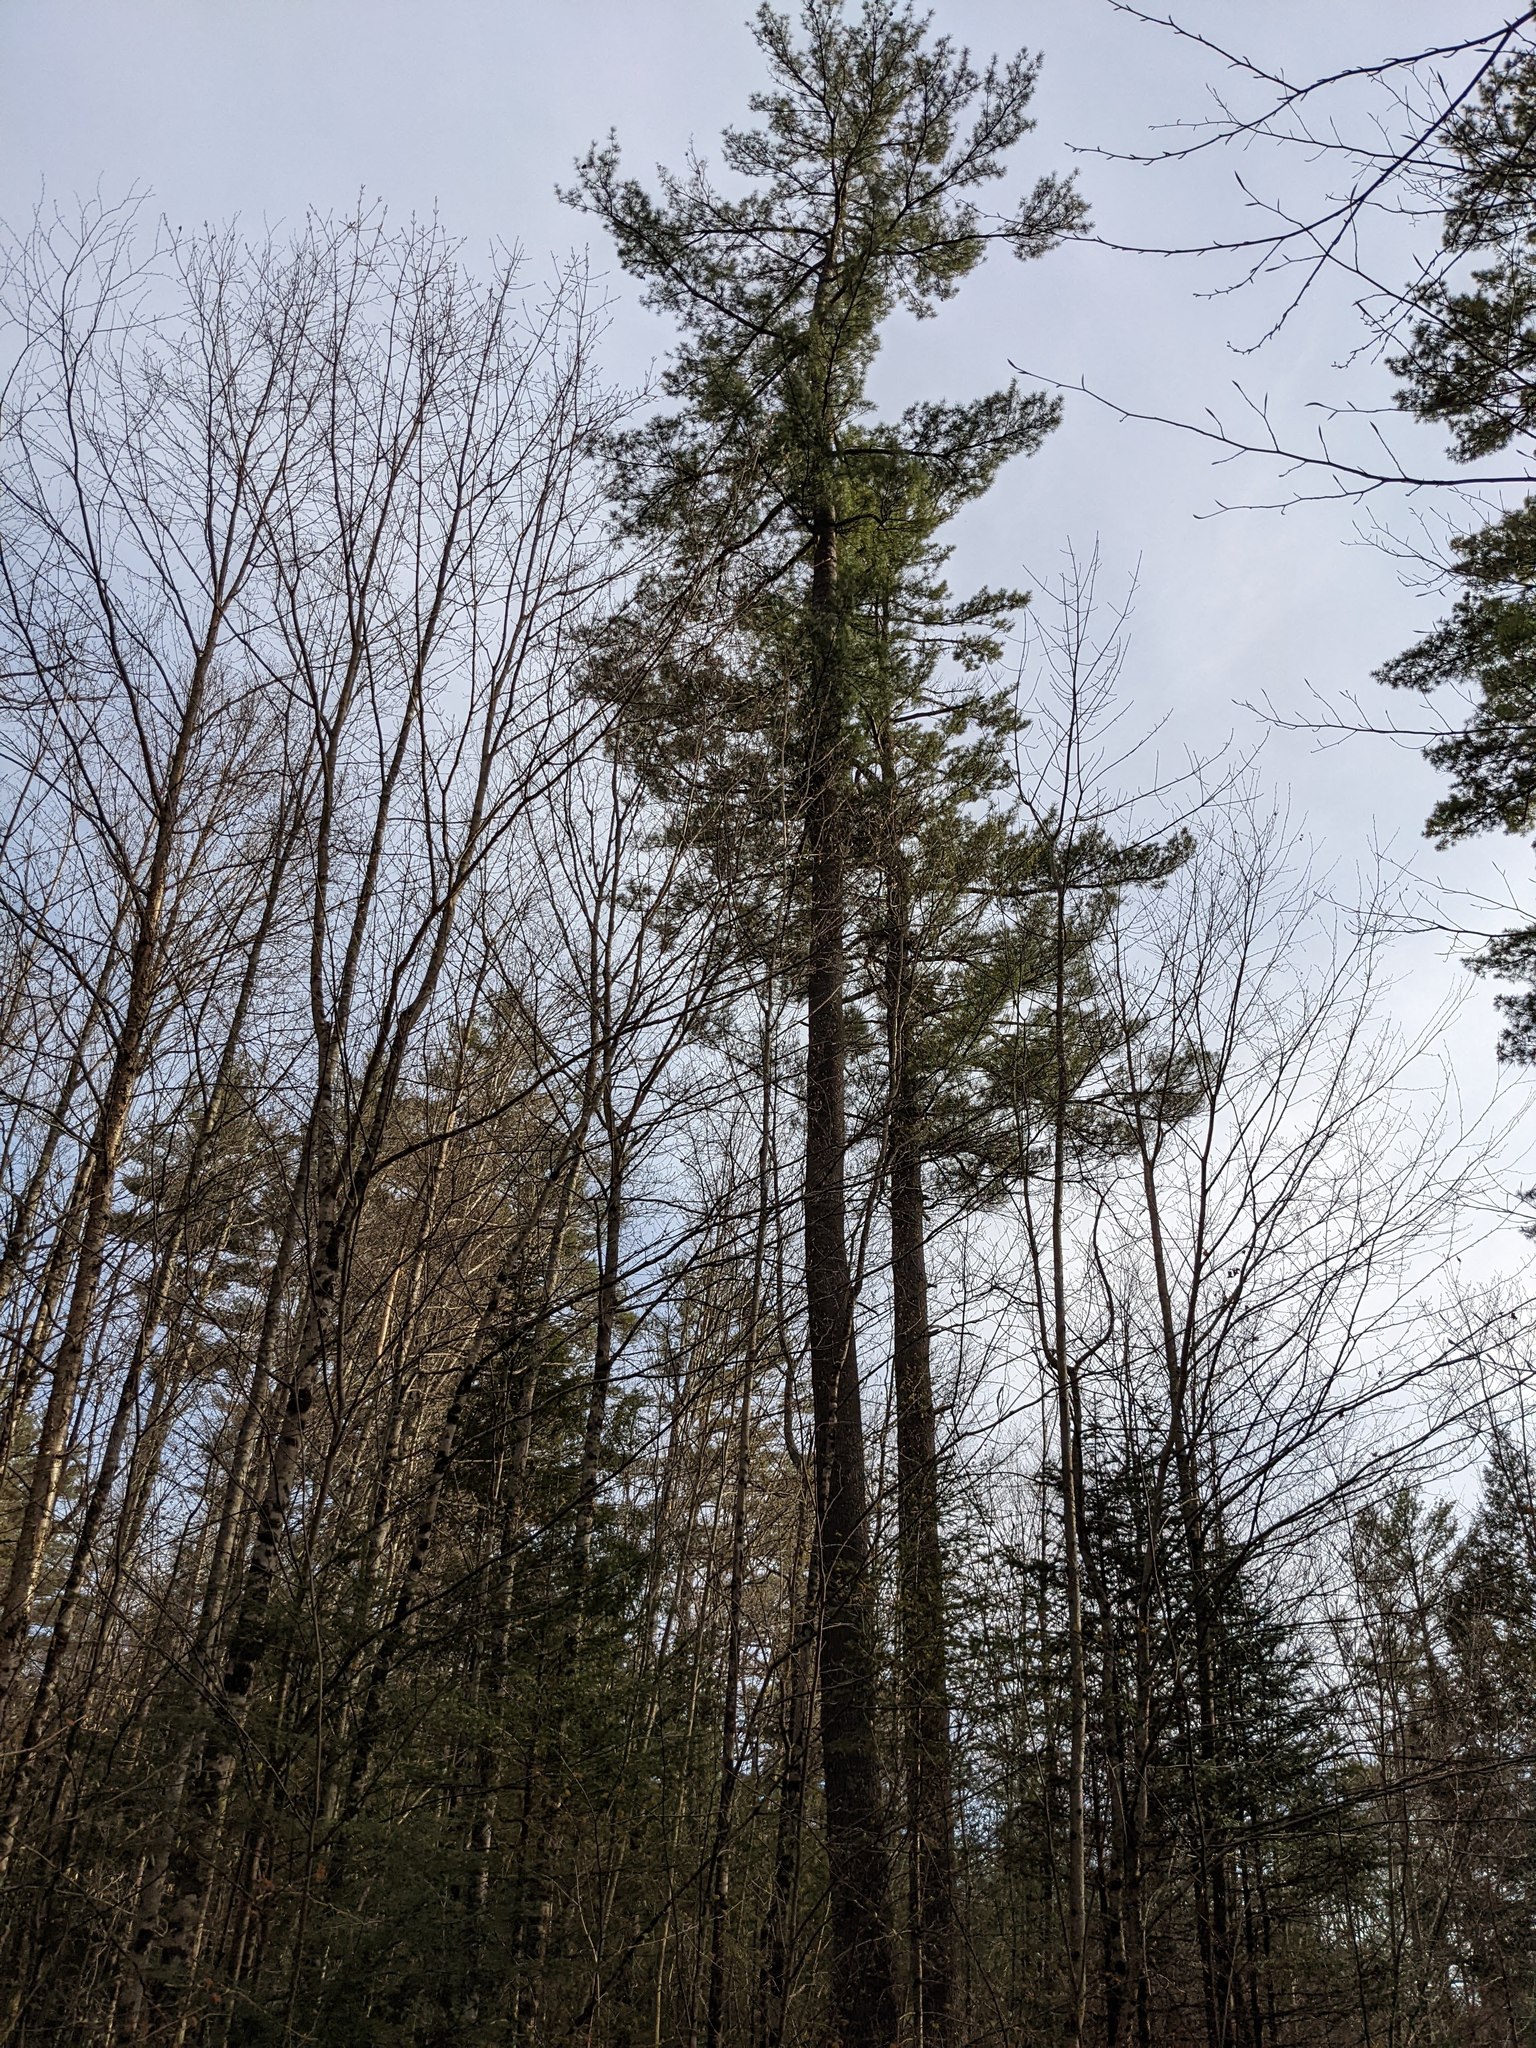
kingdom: Plantae
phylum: Tracheophyta
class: Pinopsida
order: Pinales
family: Pinaceae
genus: Pinus
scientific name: Pinus strobus
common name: Weymouth pine
